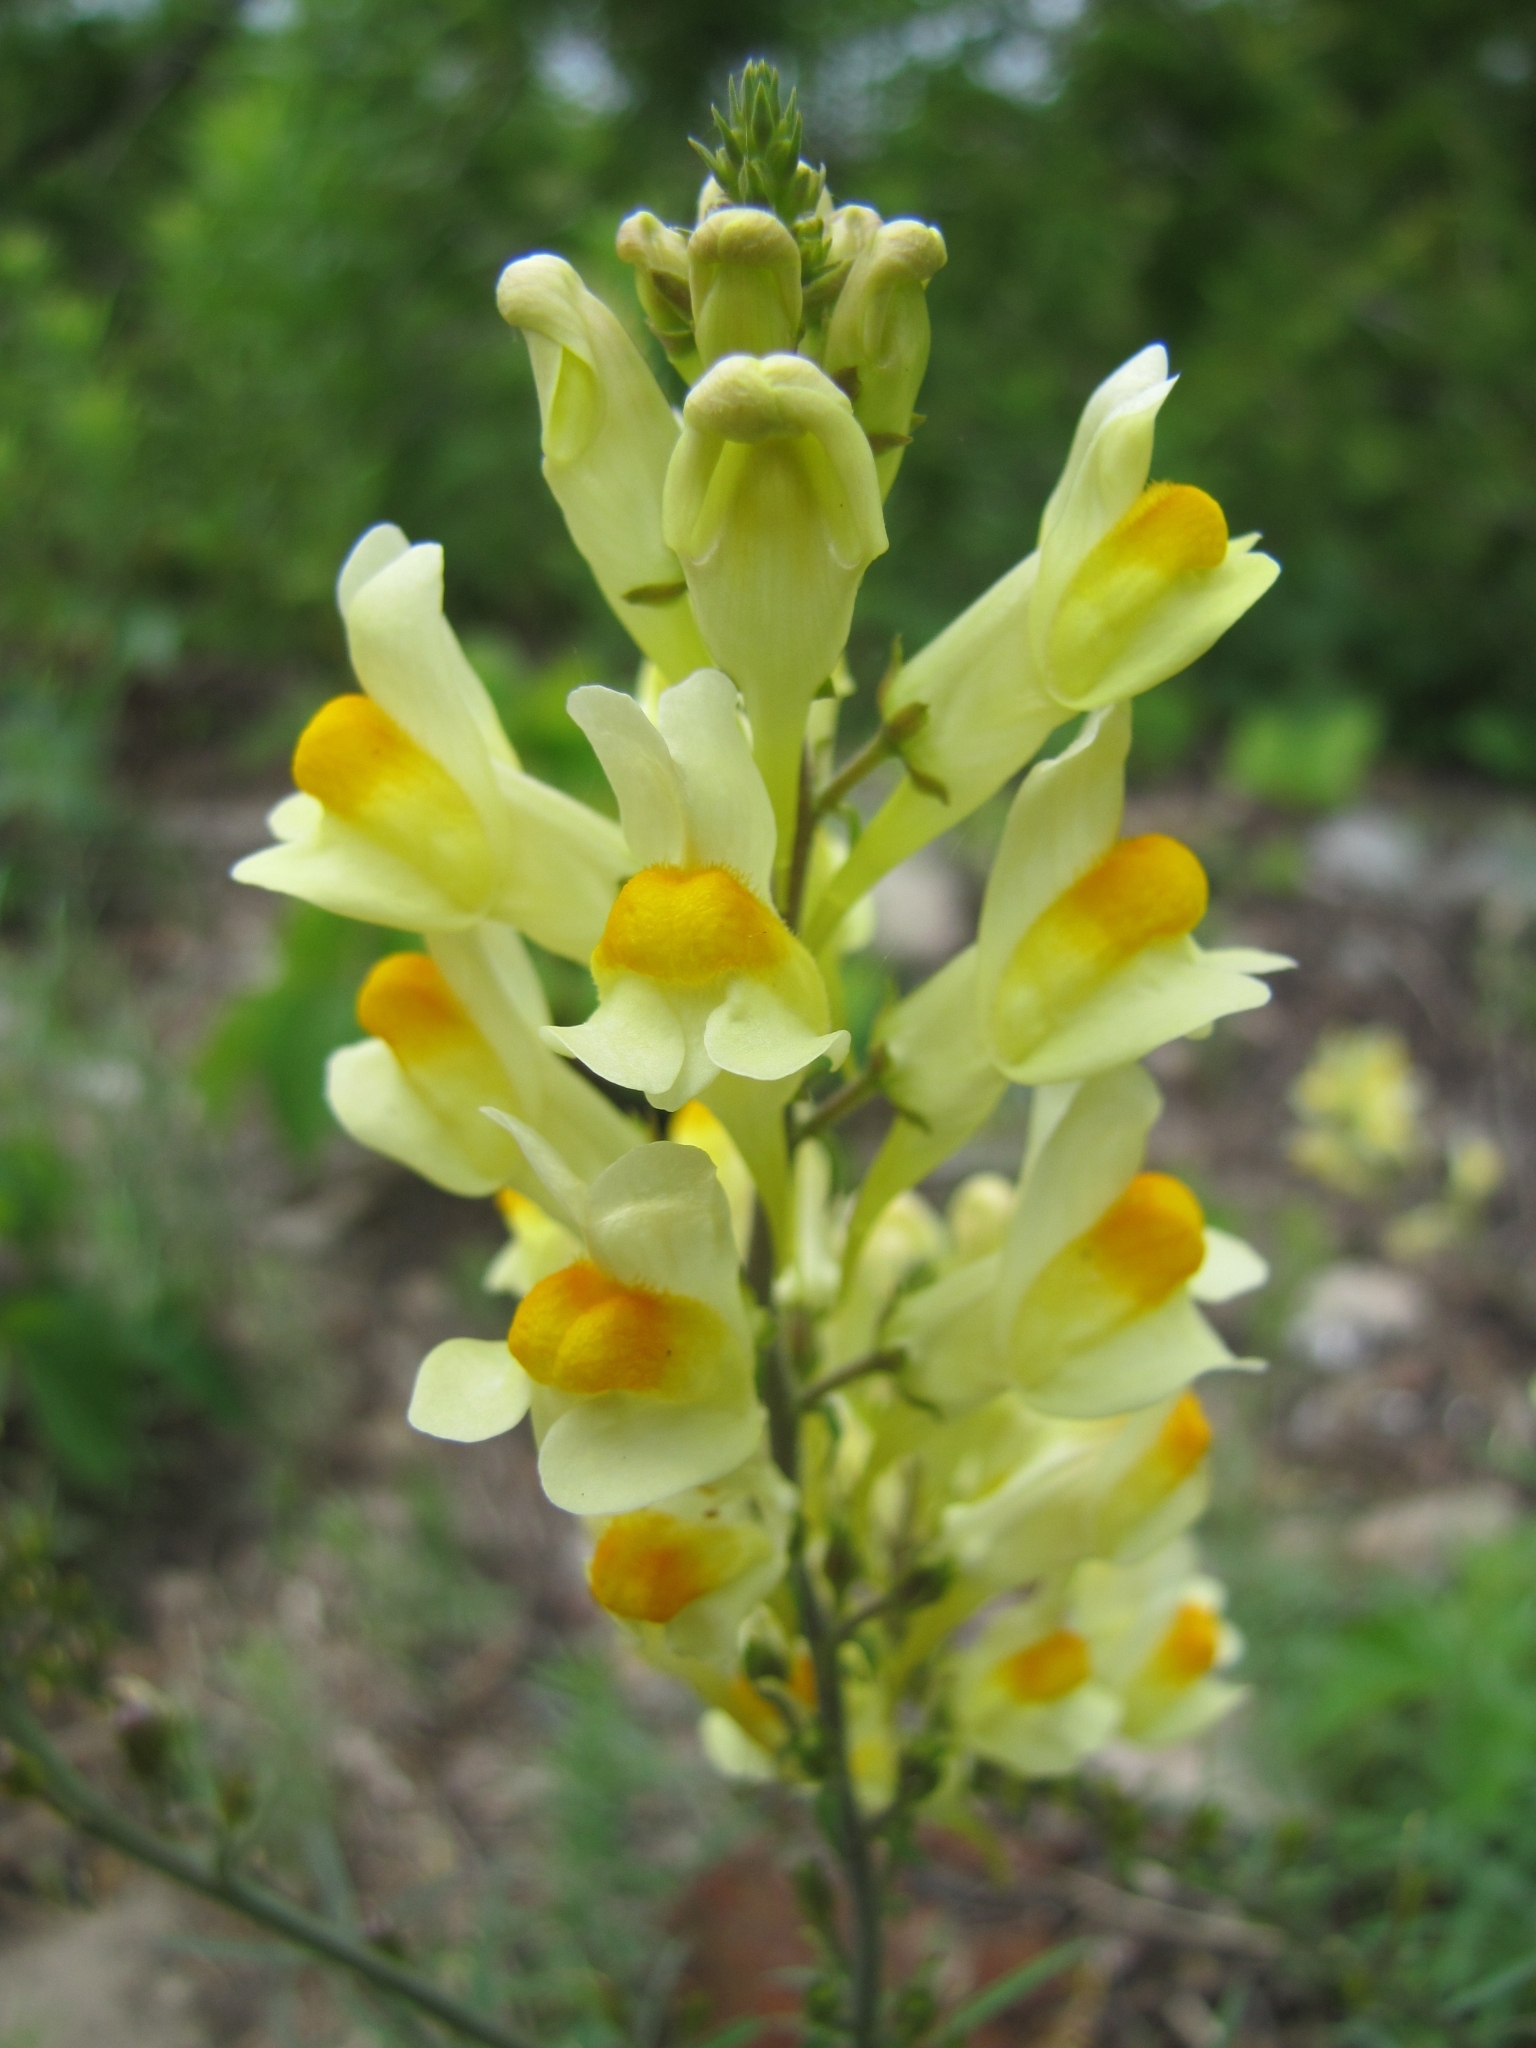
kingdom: Plantae
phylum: Tracheophyta
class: Magnoliopsida
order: Lamiales
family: Plantaginaceae
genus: Linaria
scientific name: Linaria vulgaris
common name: Butter and eggs
